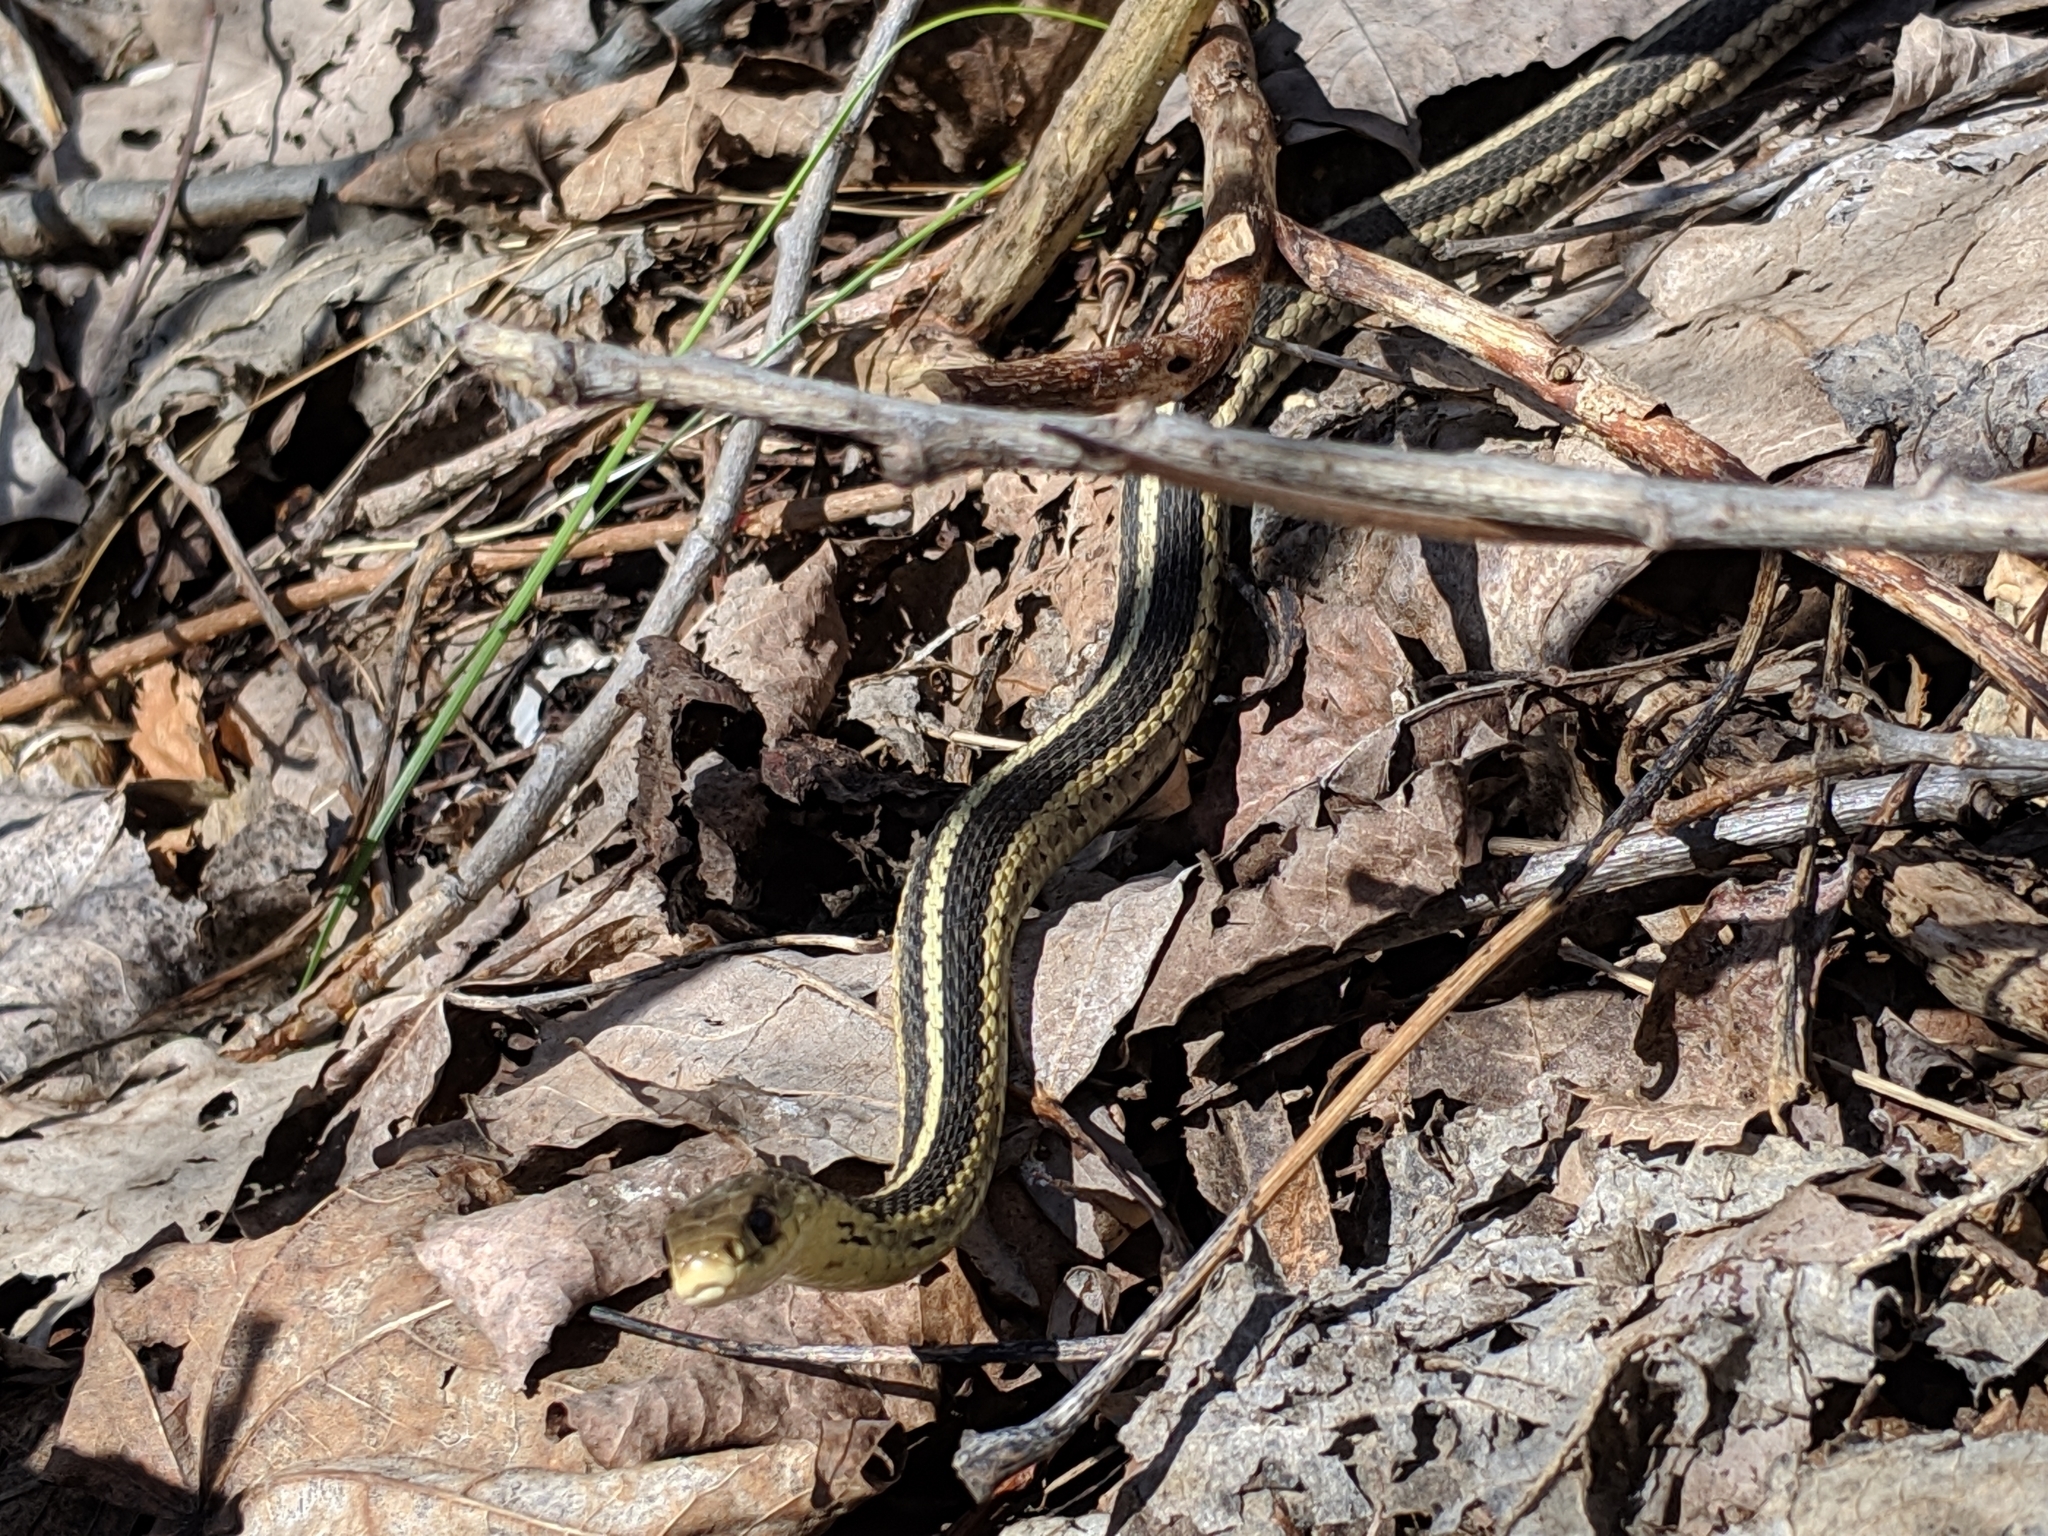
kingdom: Animalia
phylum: Chordata
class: Squamata
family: Colubridae
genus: Thamnophis
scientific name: Thamnophis sirtalis
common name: Common garter snake
